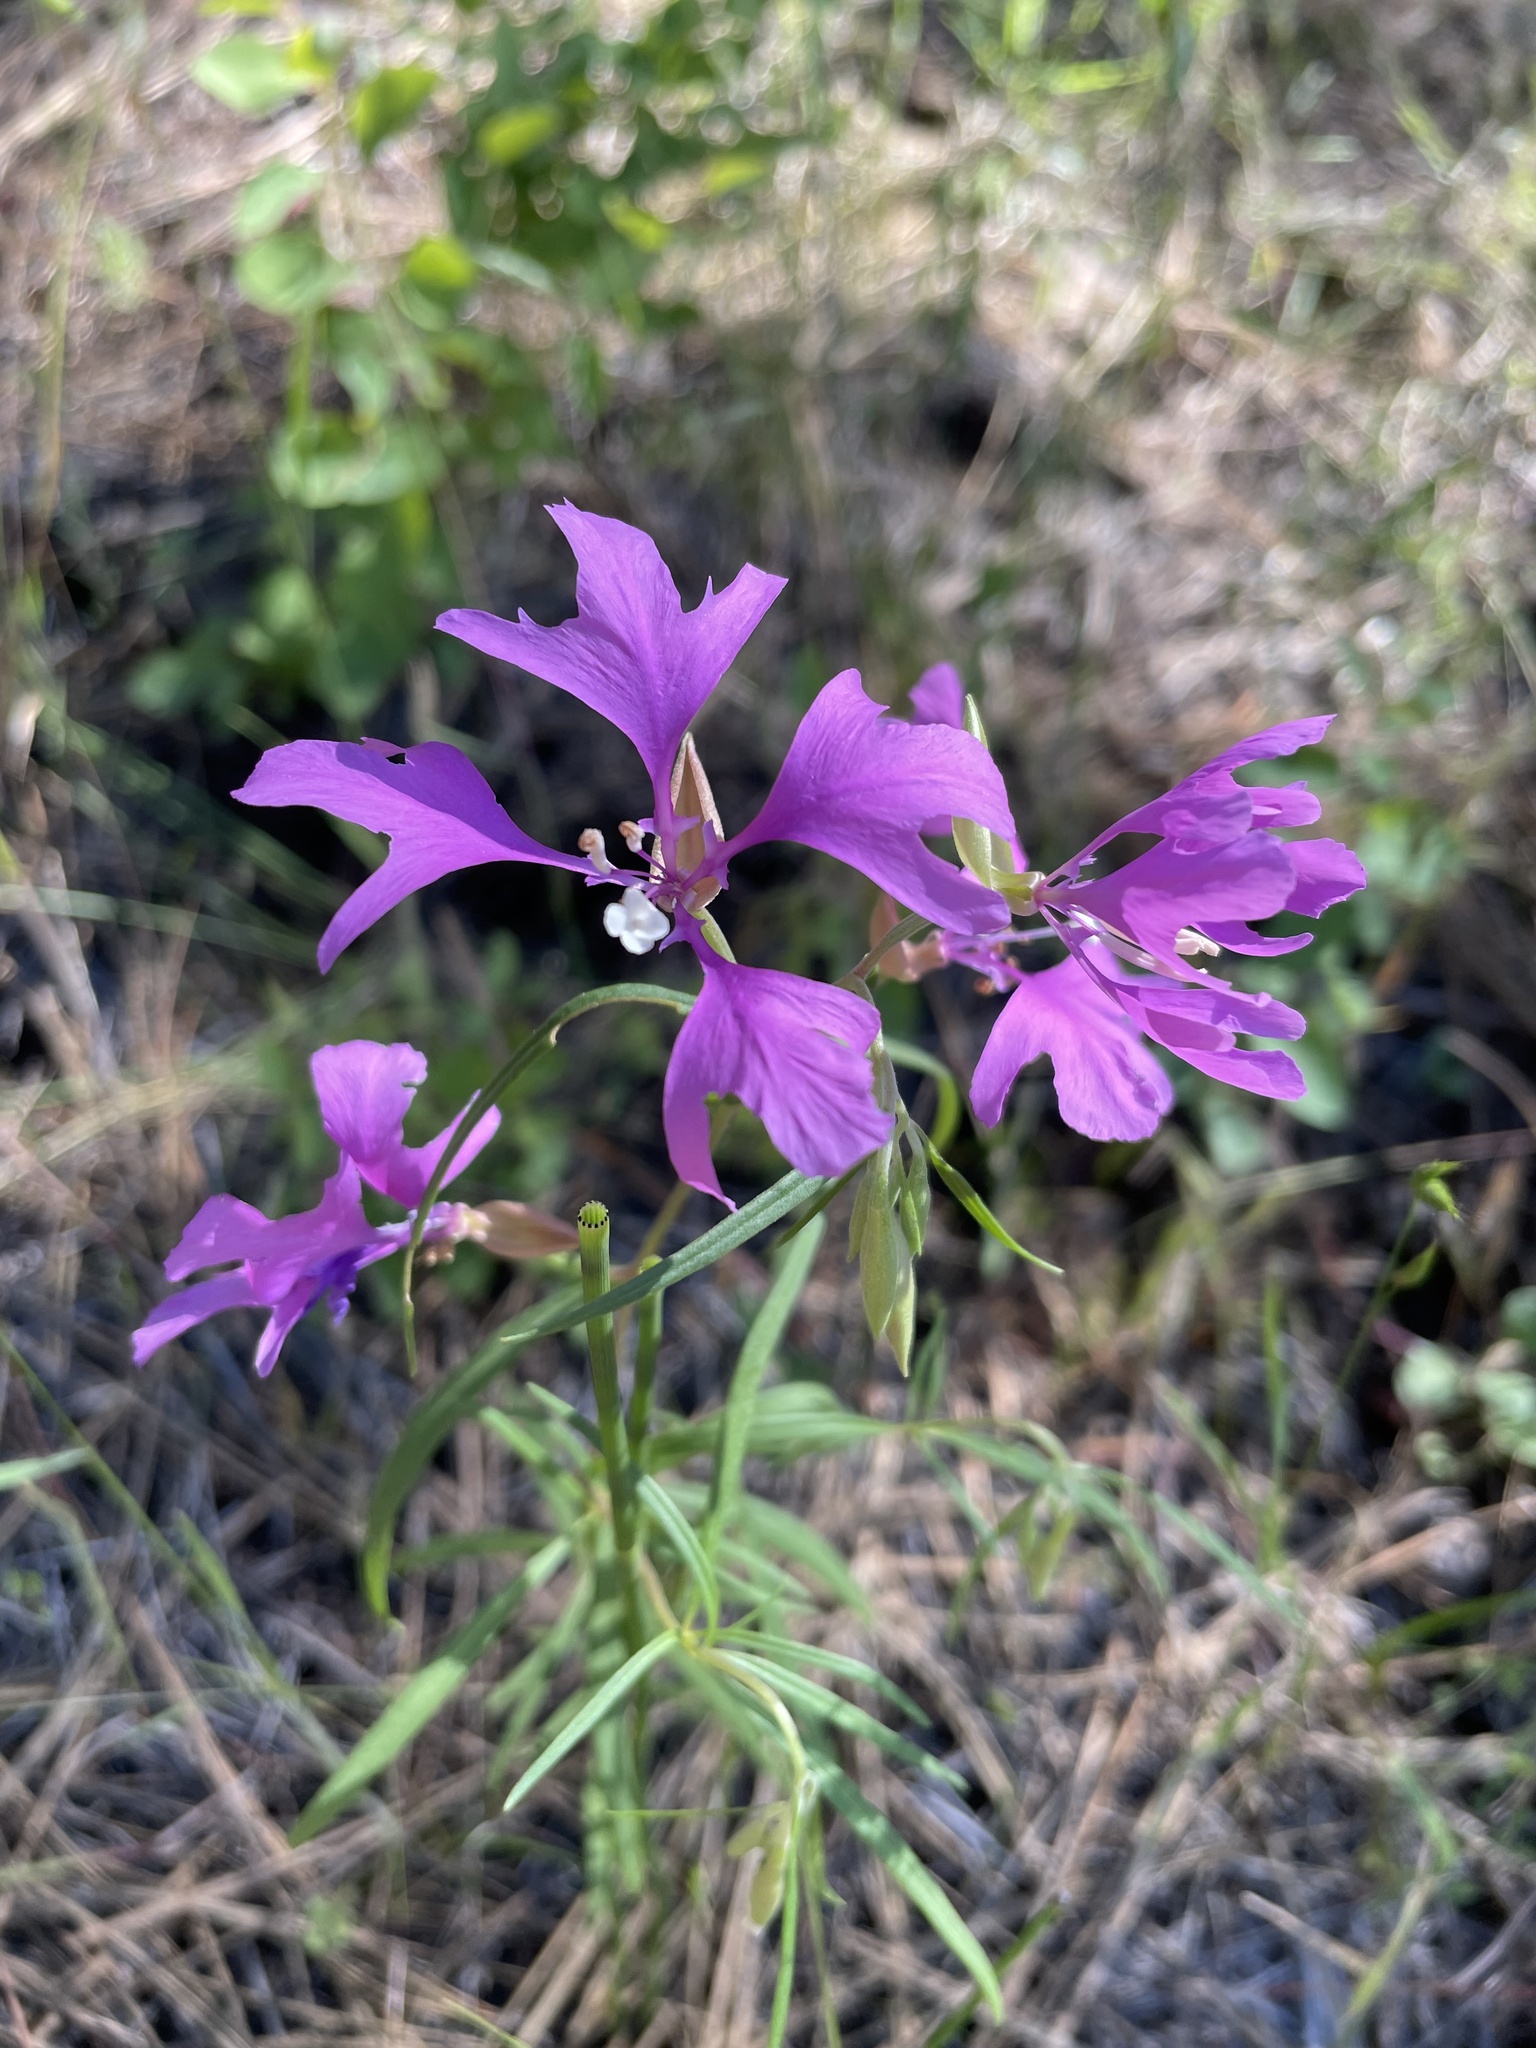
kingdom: Plantae
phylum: Tracheophyta
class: Magnoliopsida
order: Myrtales
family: Onagraceae
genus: Clarkia
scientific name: Clarkia pulchella
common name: Deer horn
